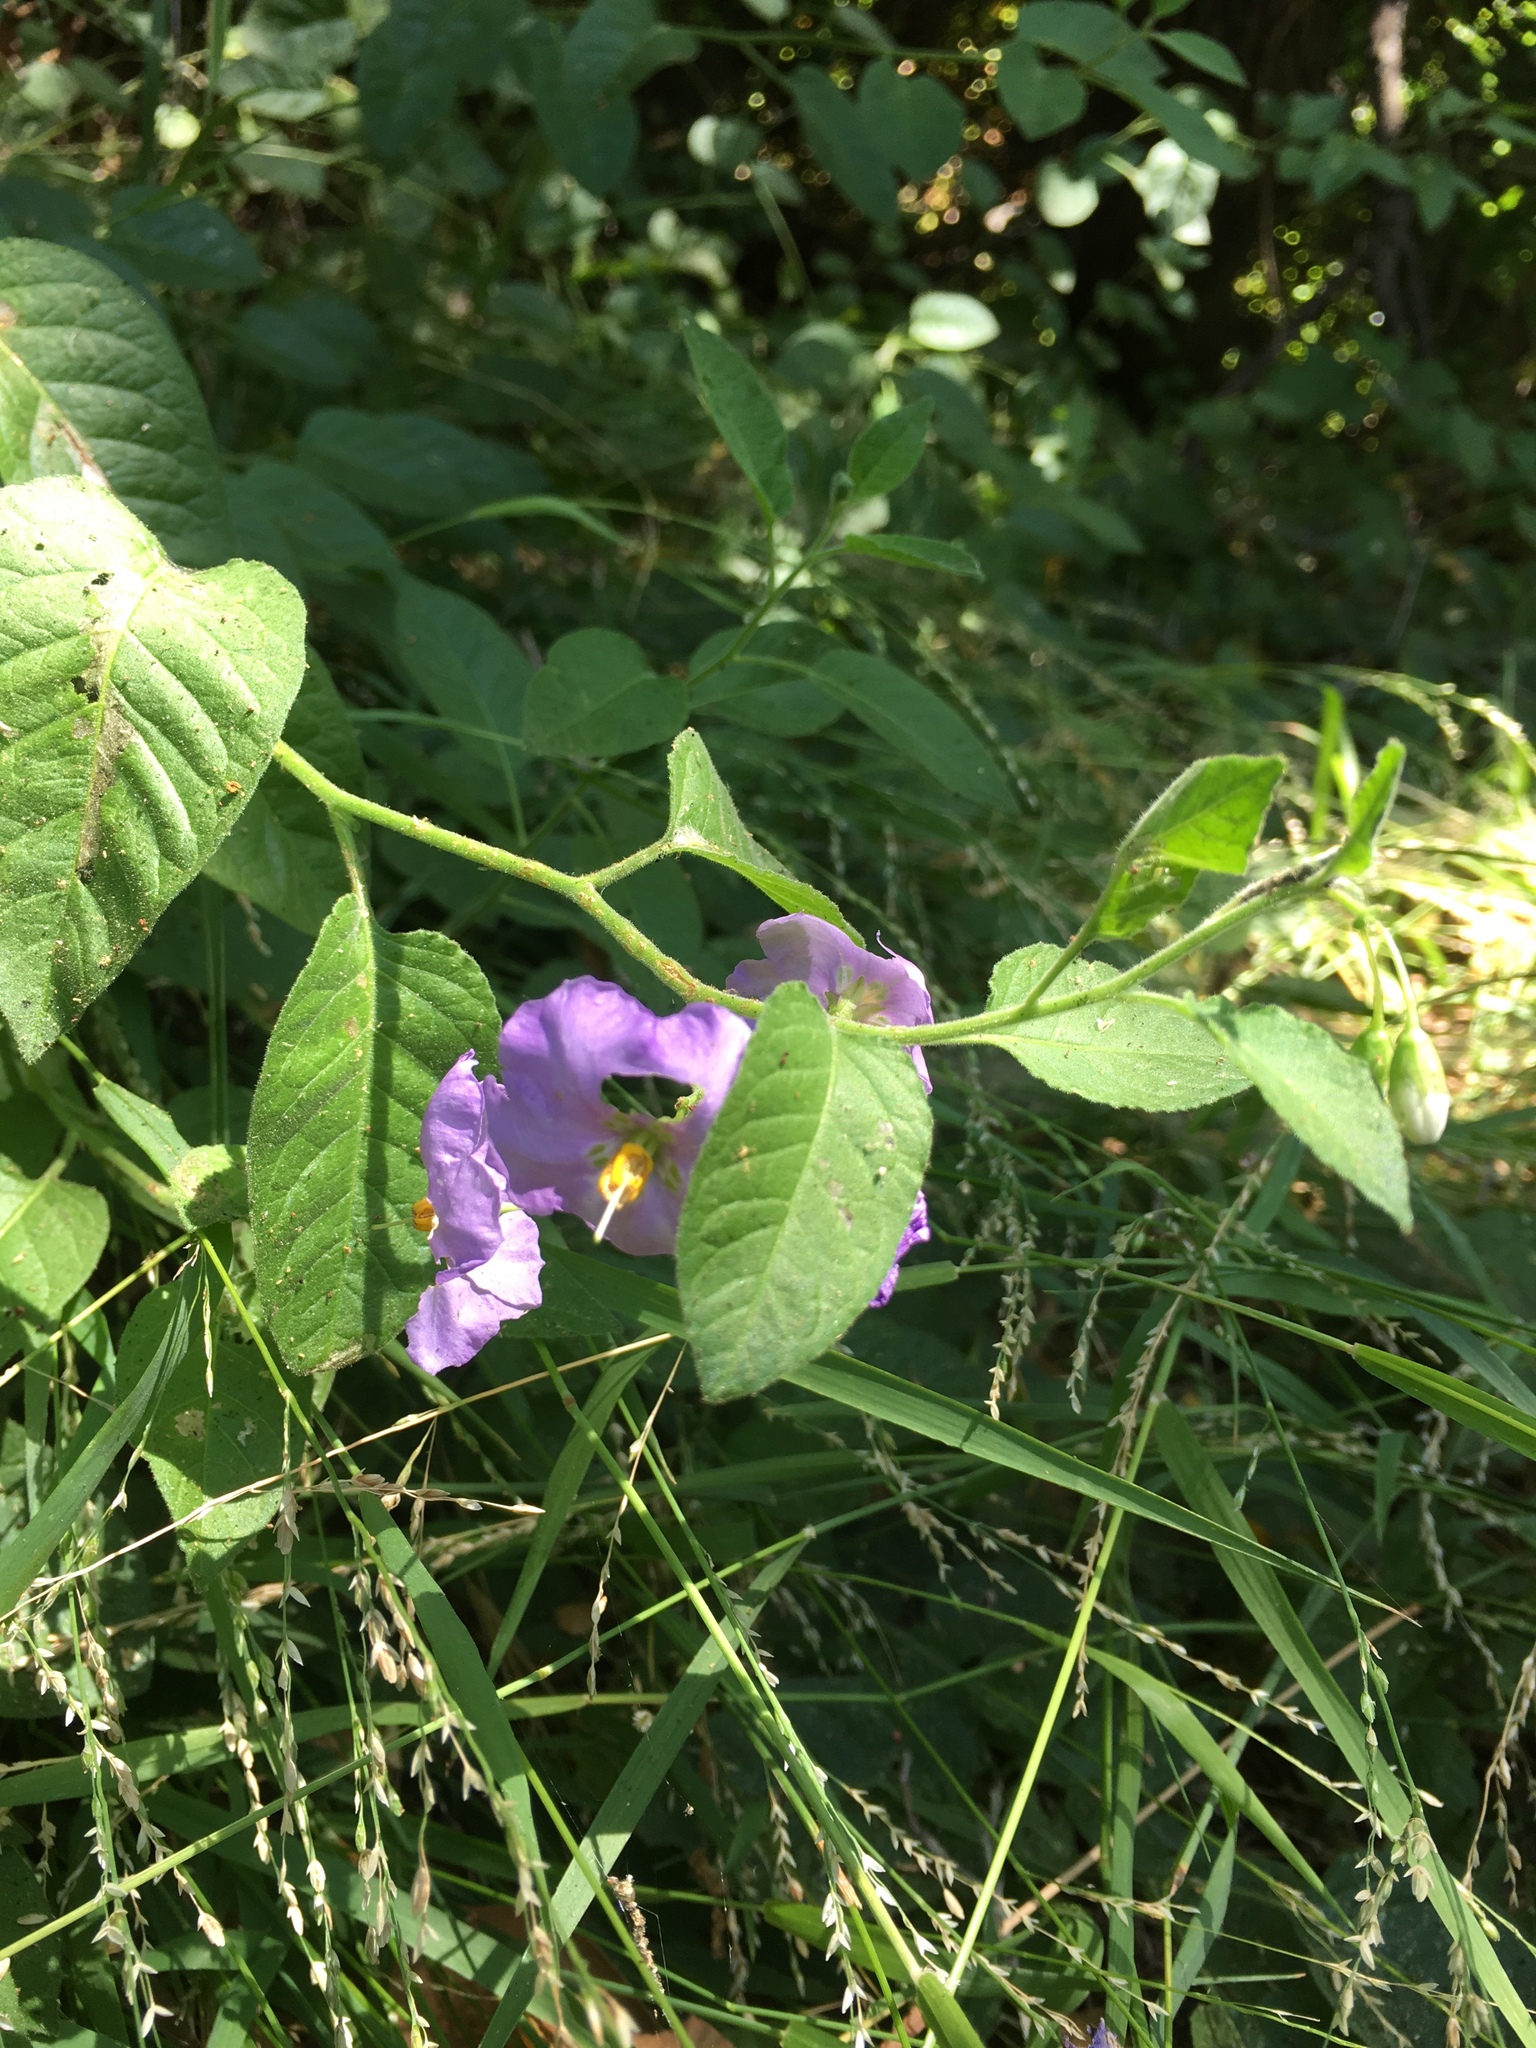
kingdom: Plantae
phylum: Tracheophyta
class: Magnoliopsida
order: Solanales
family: Solanaceae
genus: Solanum
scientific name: Solanum umbelliferum
